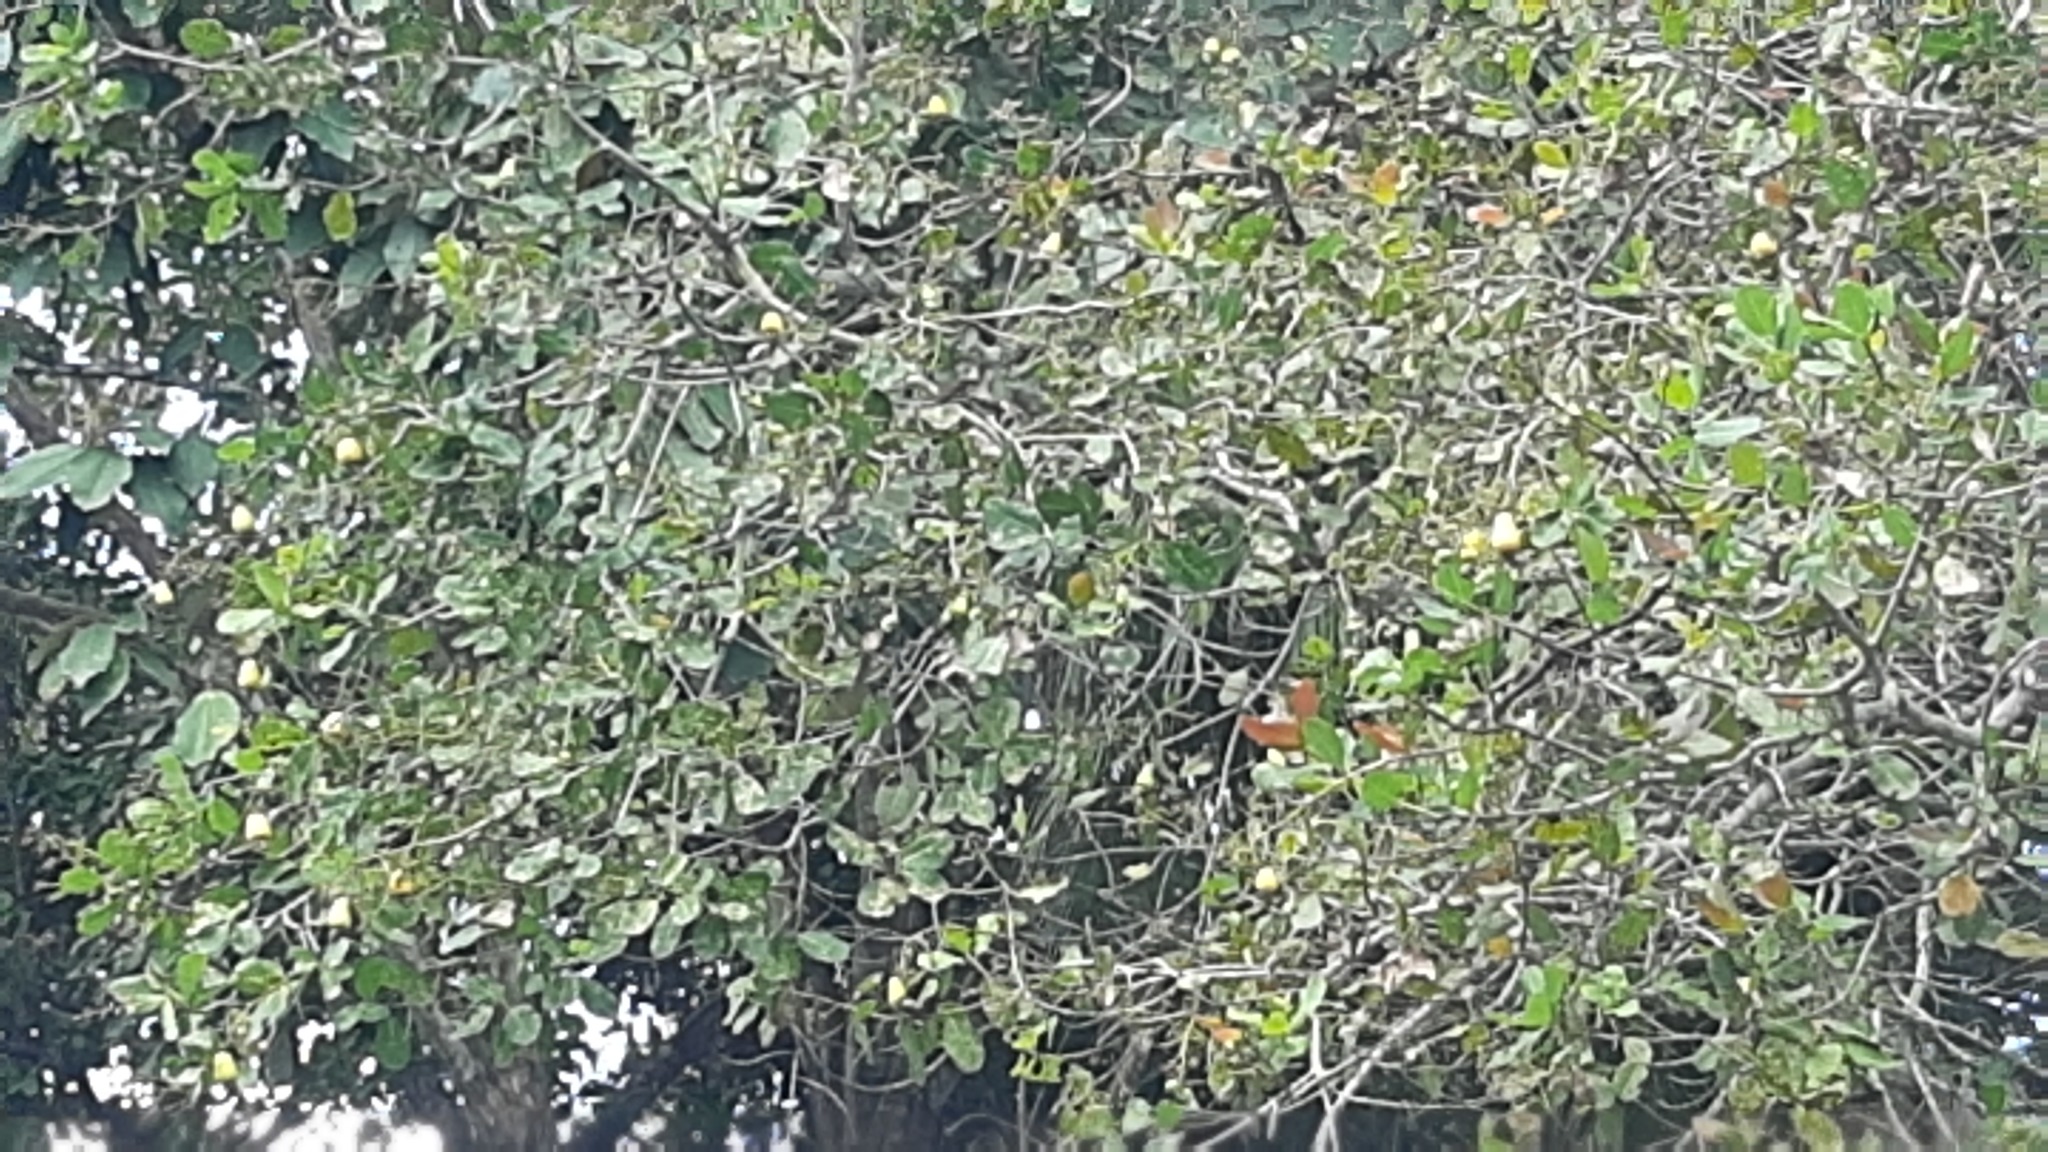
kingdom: Plantae
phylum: Tracheophyta
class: Magnoliopsida
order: Sapindales
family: Anacardiaceae
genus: Anacardium
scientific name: Anacardium occidentale
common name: Cashew
